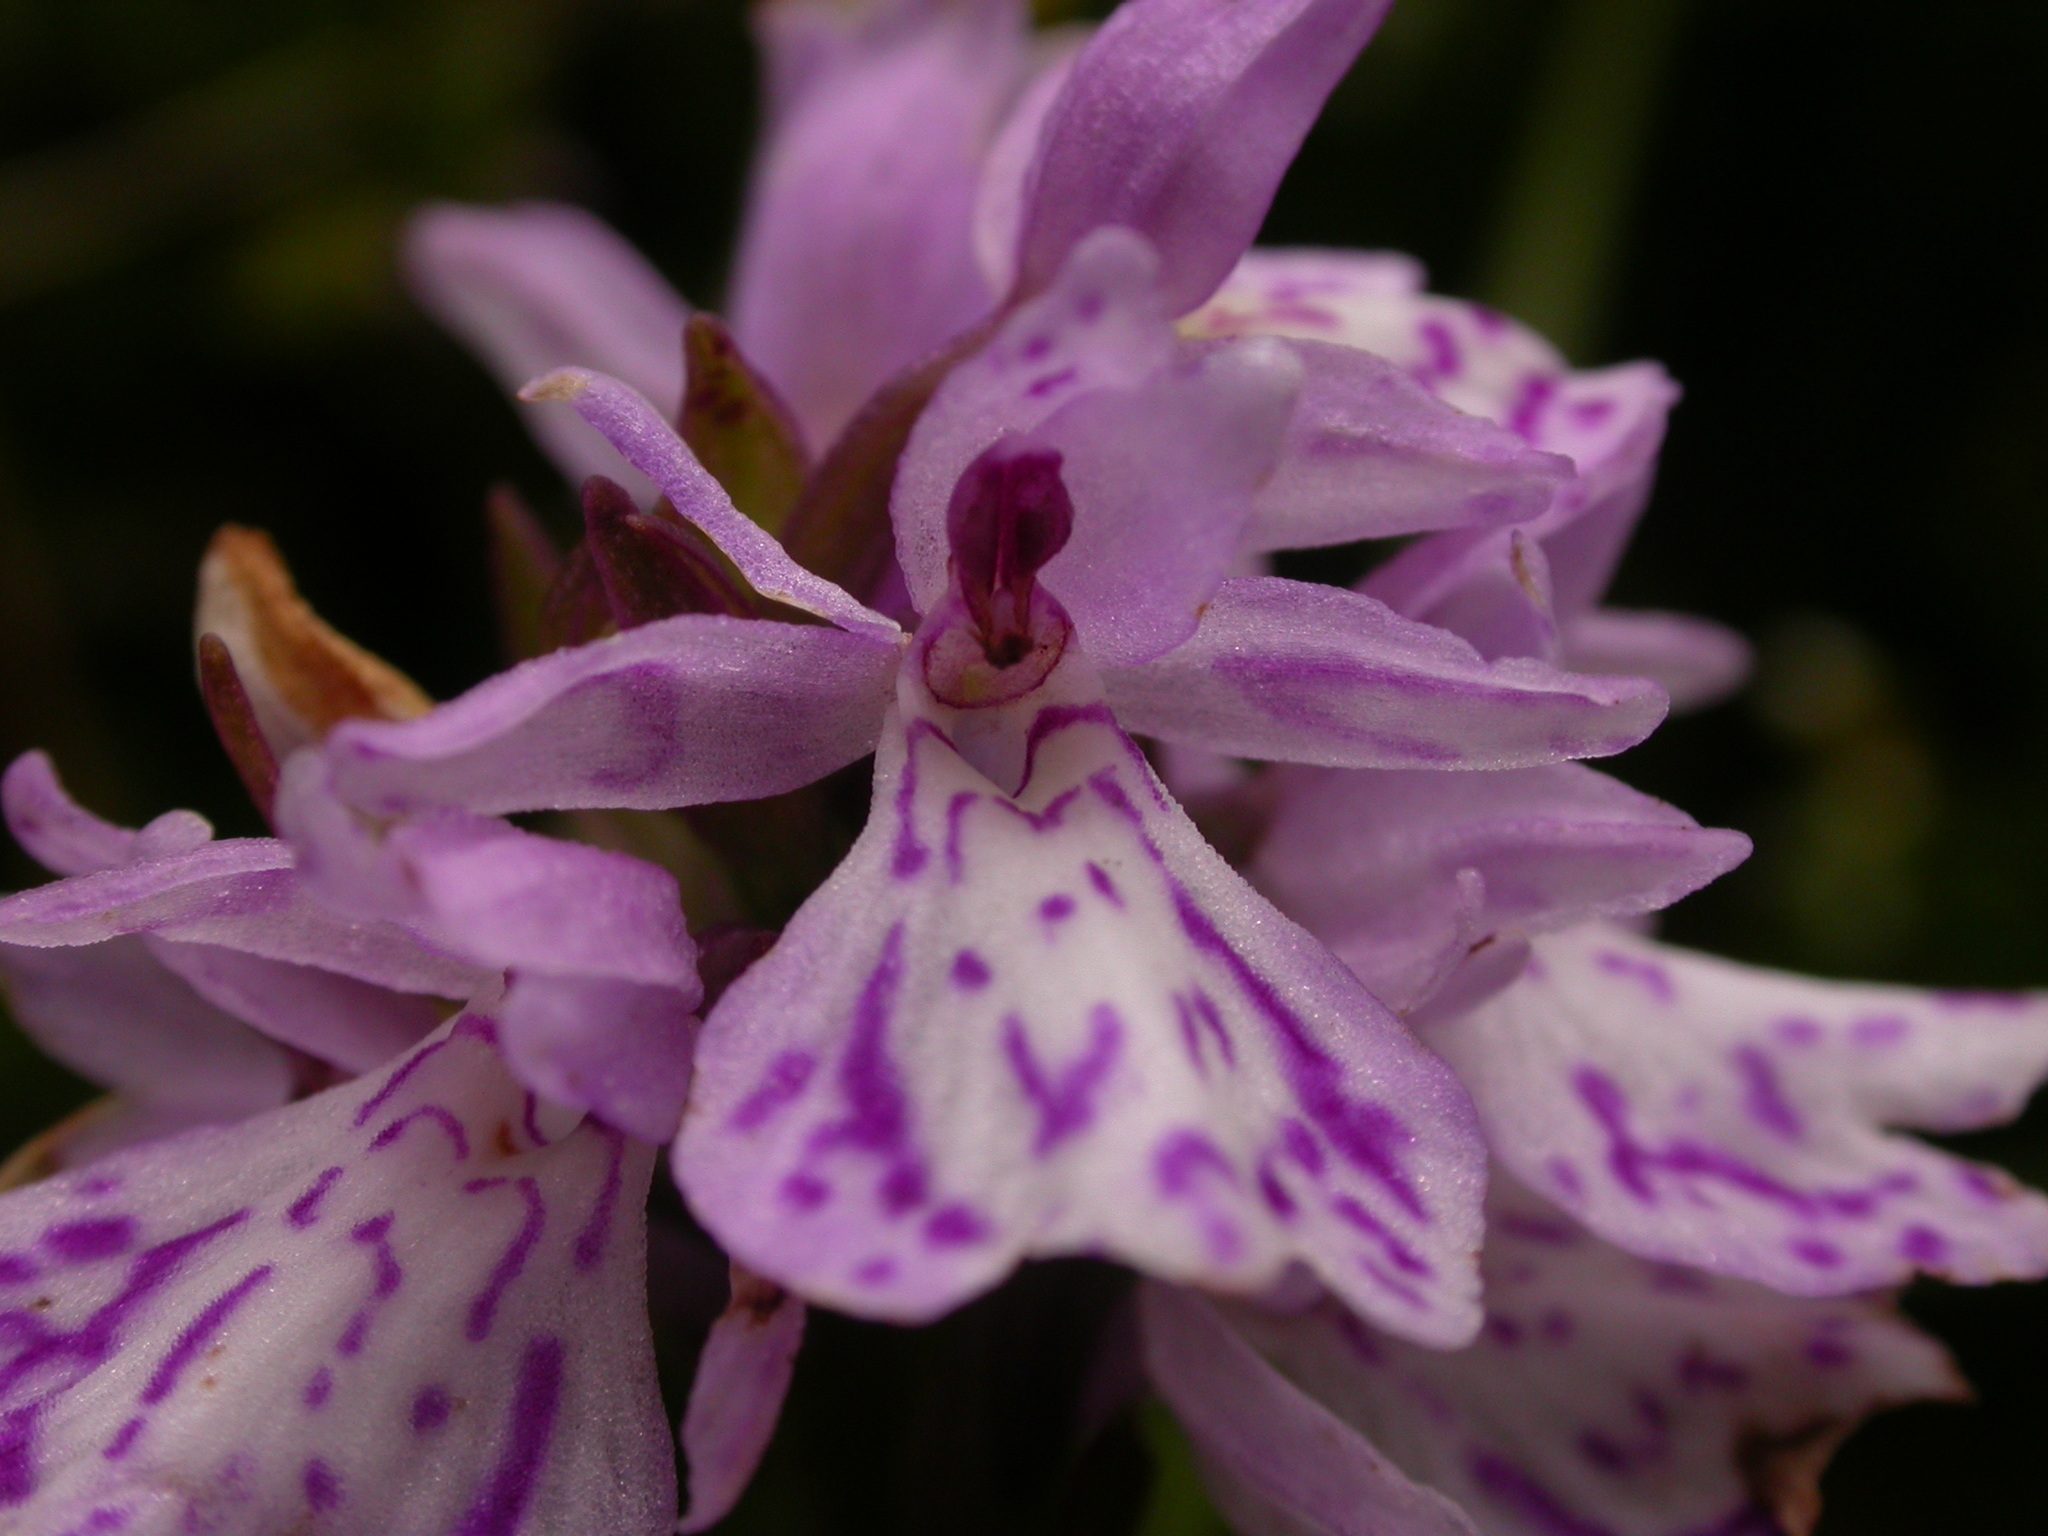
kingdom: Plantae
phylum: Tracheophyta
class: Liliopsida
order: Asparagales
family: Orchidaceae
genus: Dactylorhiza
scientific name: Dactylorhiza maculata
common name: Heath spotted-orchid
